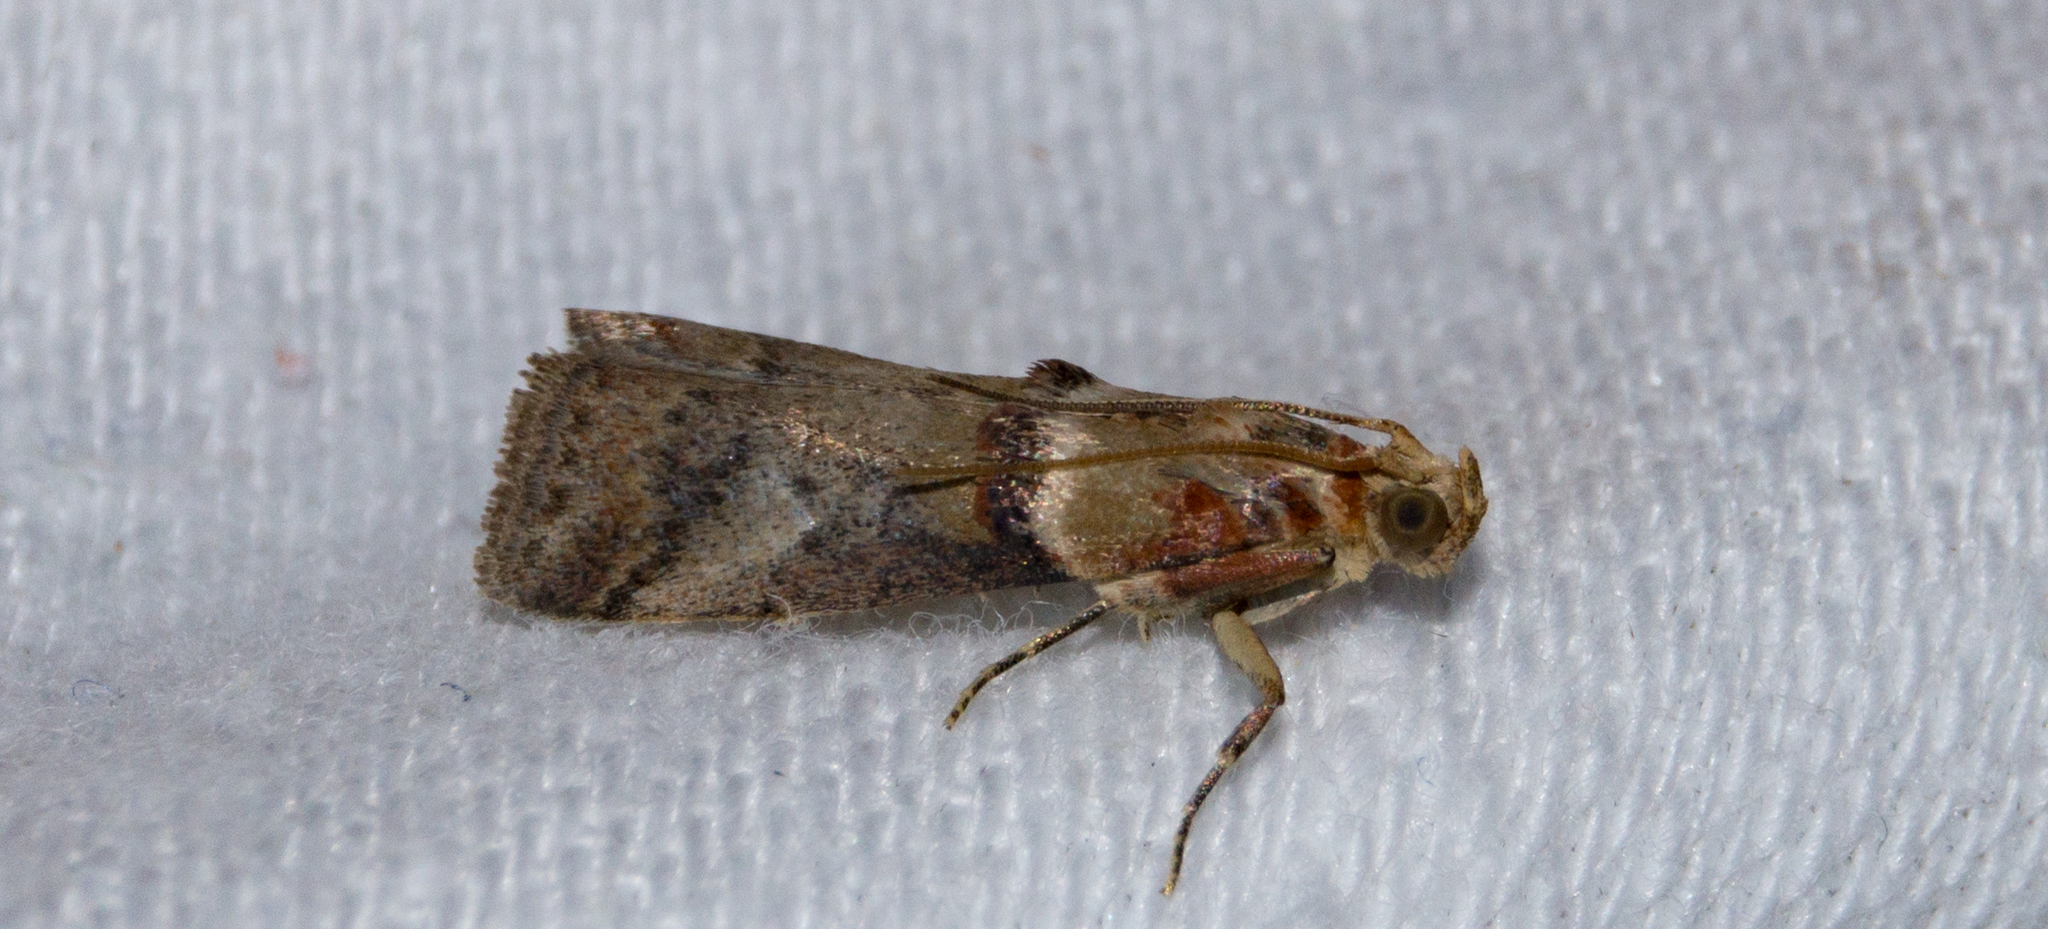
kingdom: Animalia
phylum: Arthropoda
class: Insecta
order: Lepidoptera
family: Pyralidae
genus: Acrobasis
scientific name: Acrobasis tumidana
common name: Scarce oak knot-horn
